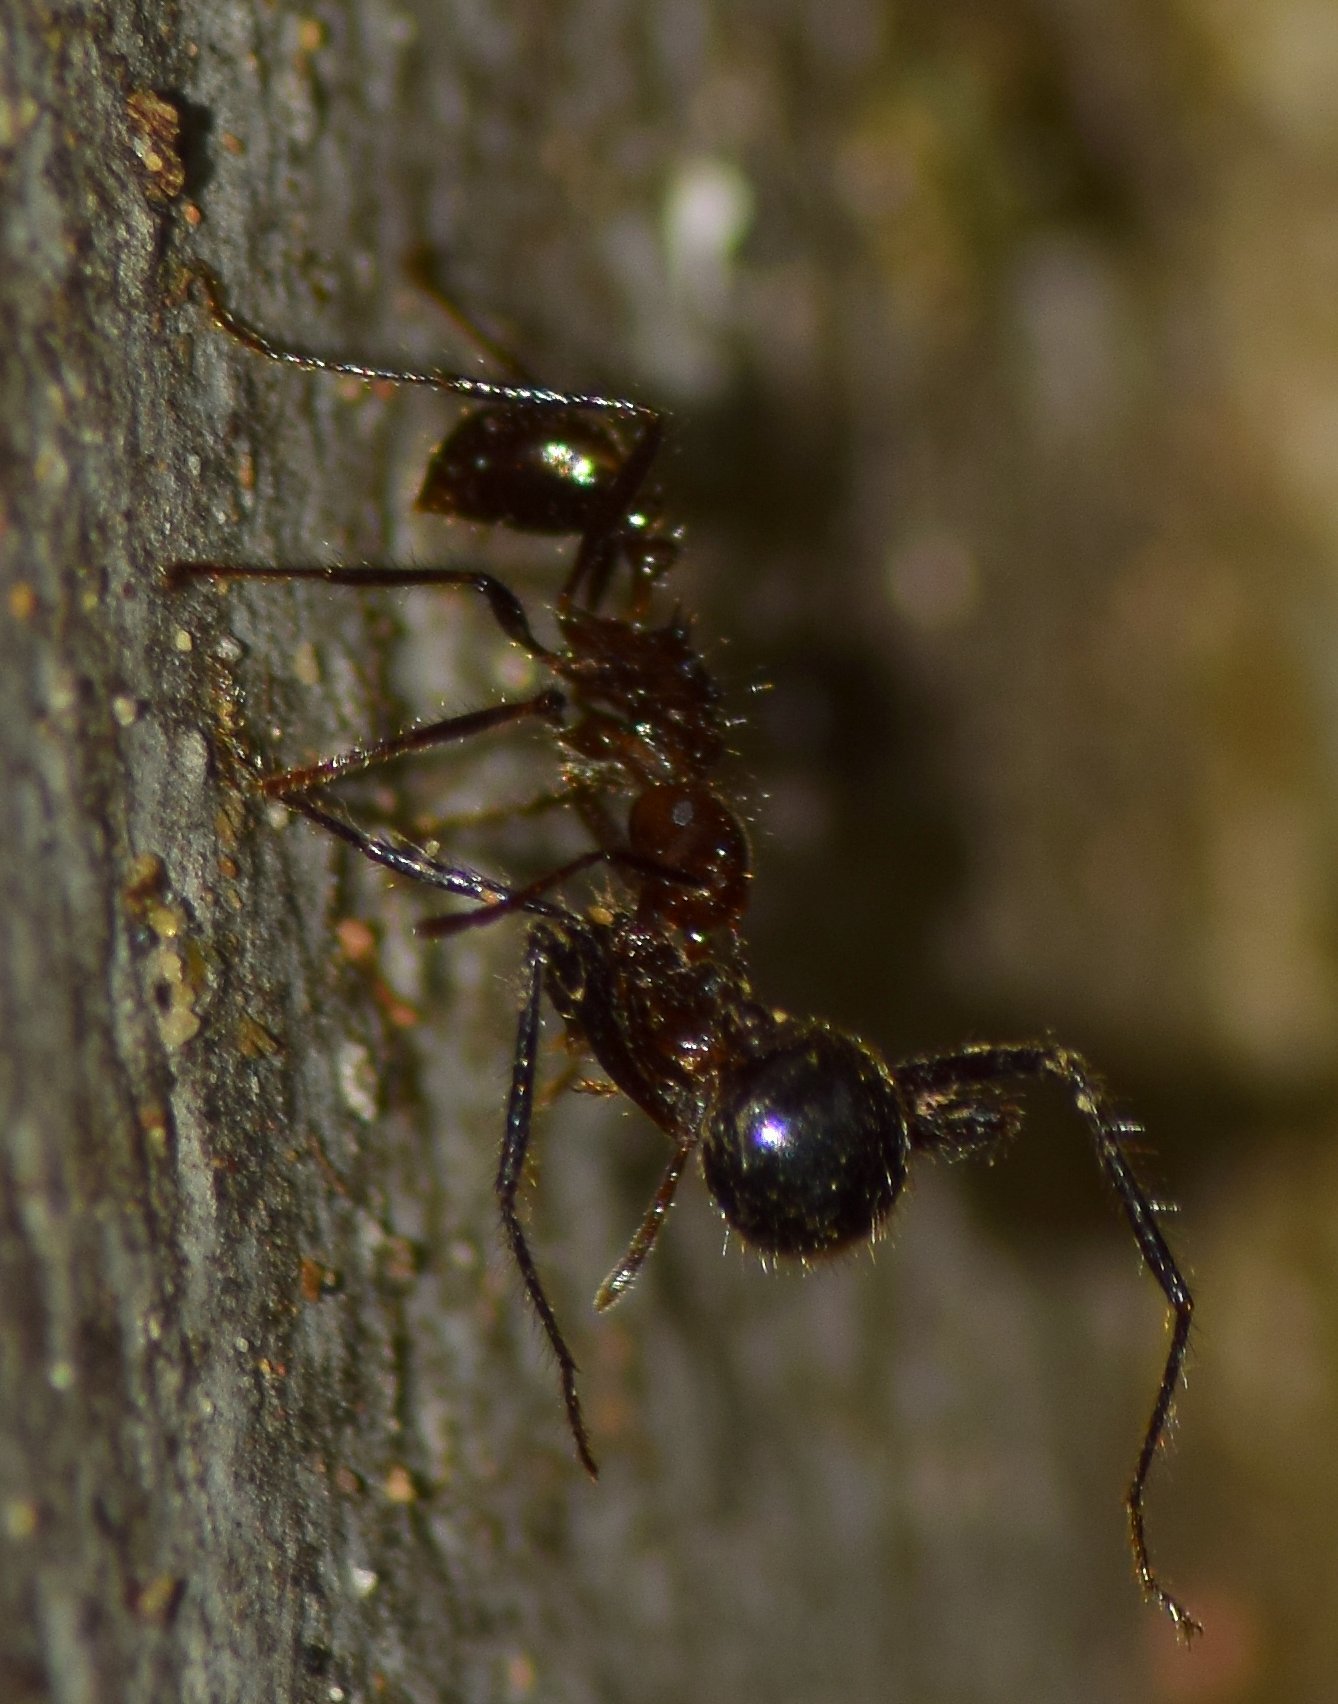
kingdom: Animalia
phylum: Arthropoda
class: Insecta
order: Hymenoptera
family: Formicidae
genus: Myrmicaria
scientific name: Myrmicaria brunnea
